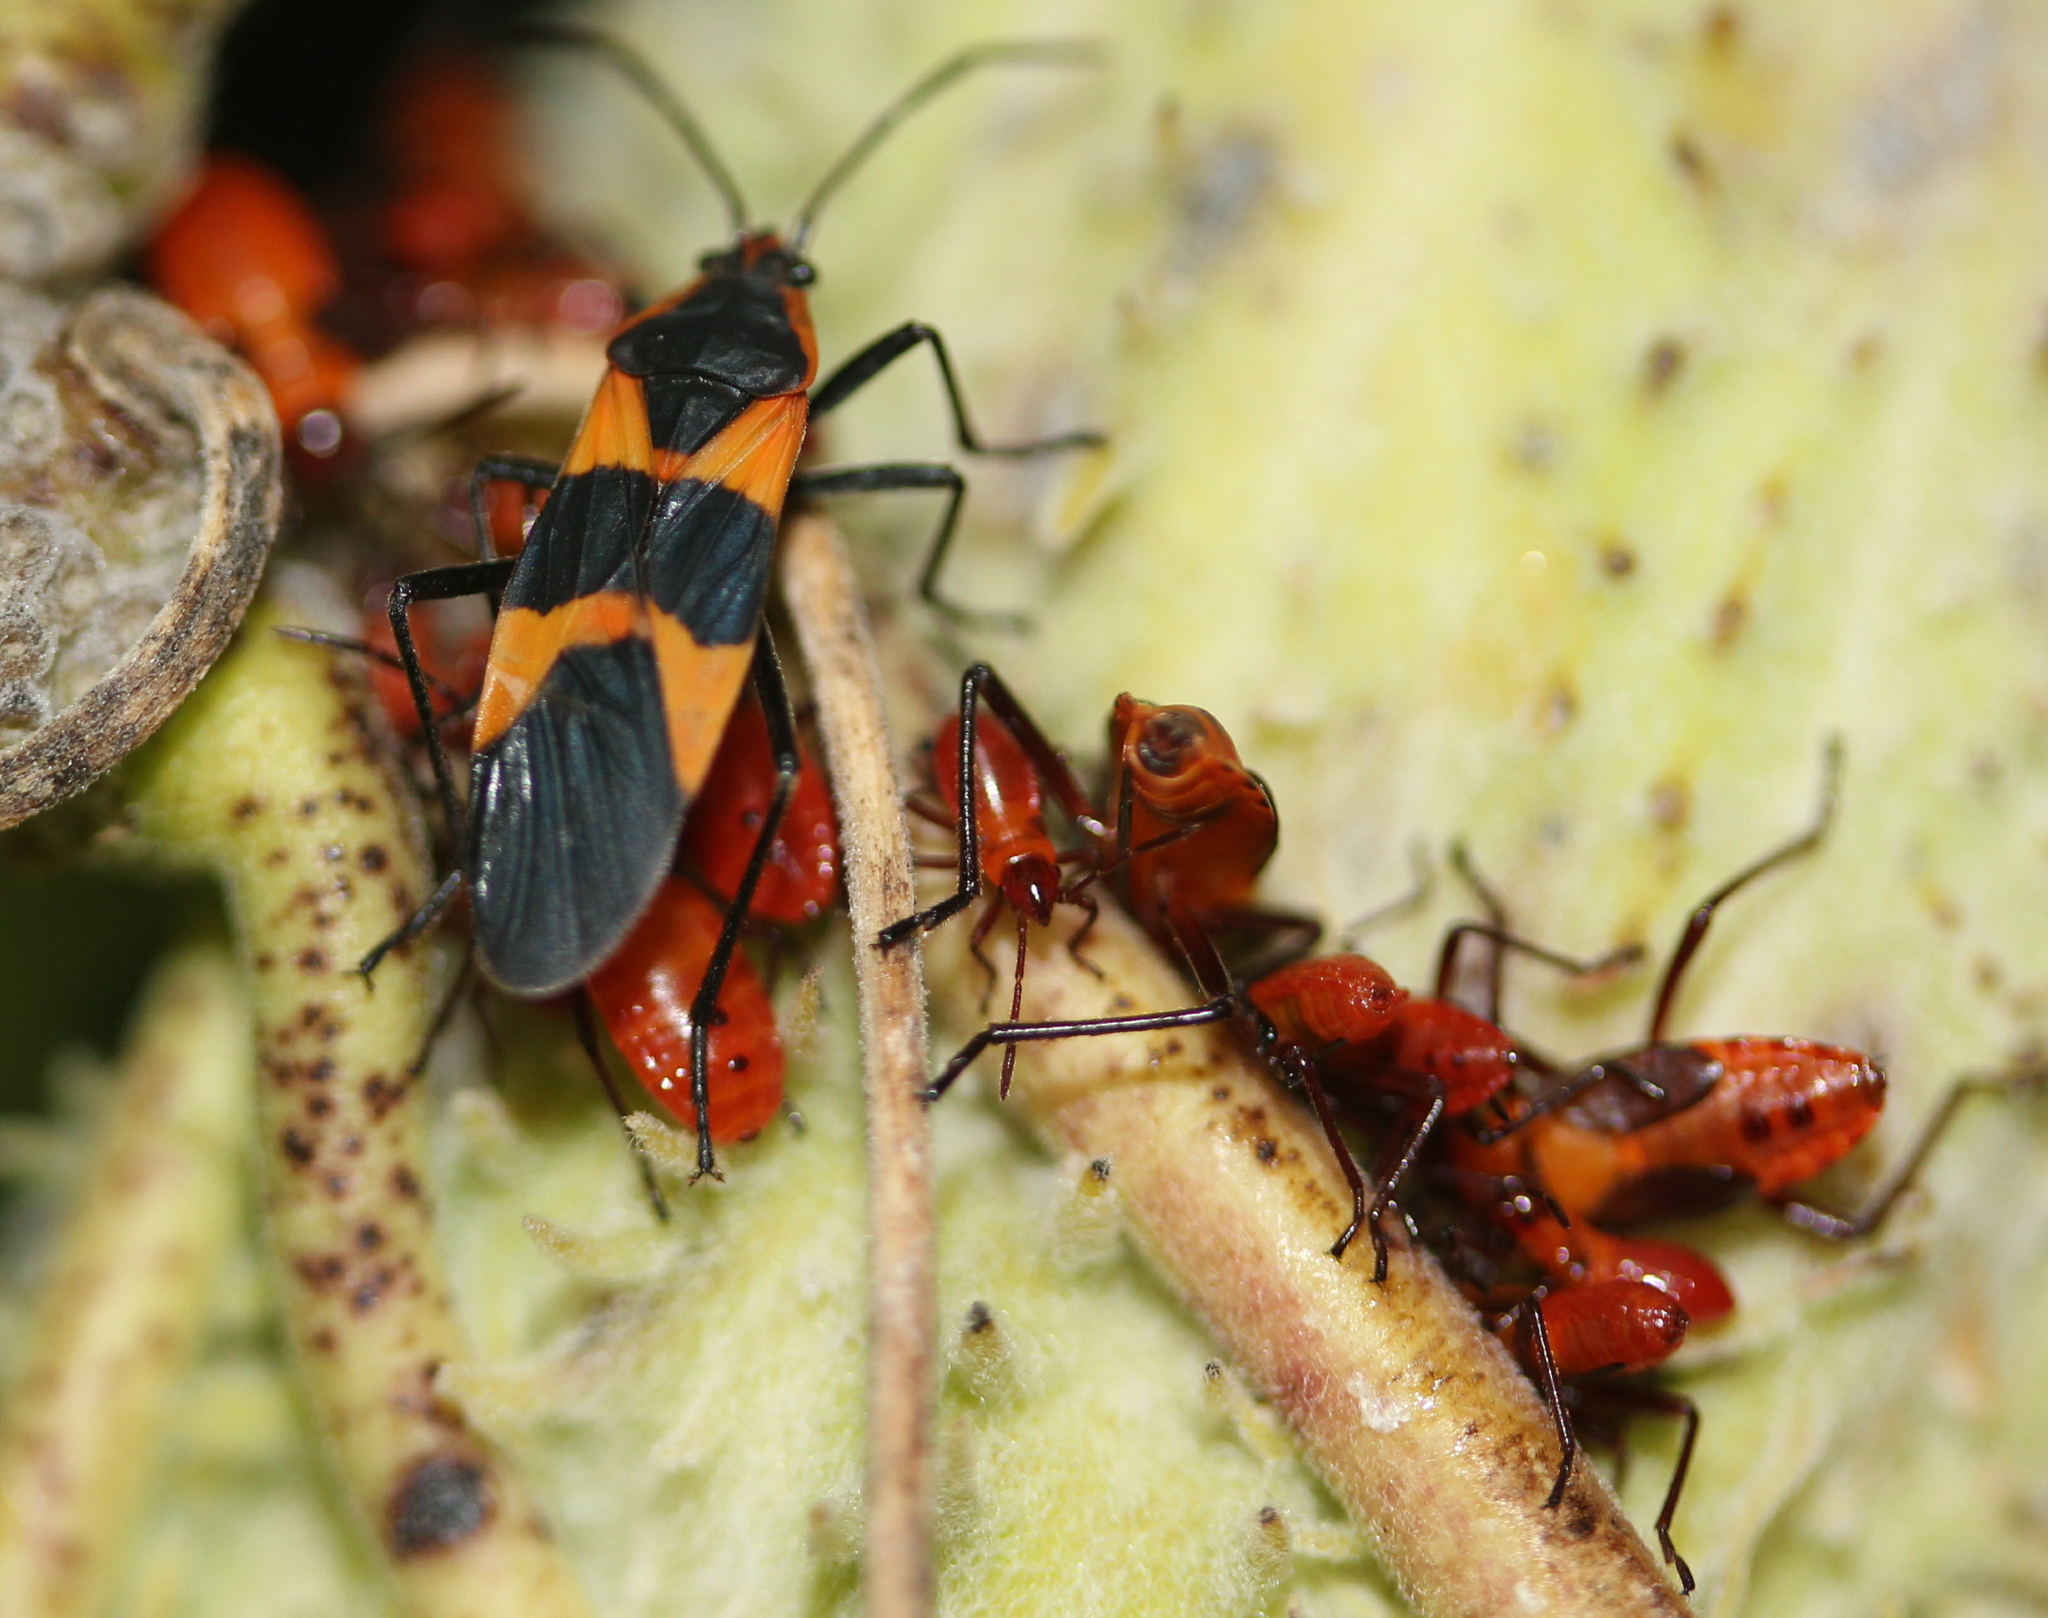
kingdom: Animalia
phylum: Arthropoda
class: Insecta
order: Hemiptera
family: Lygaeidae
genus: Oncopeltus
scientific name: Oncopeltus fasciatus
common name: Large milkweed bug
